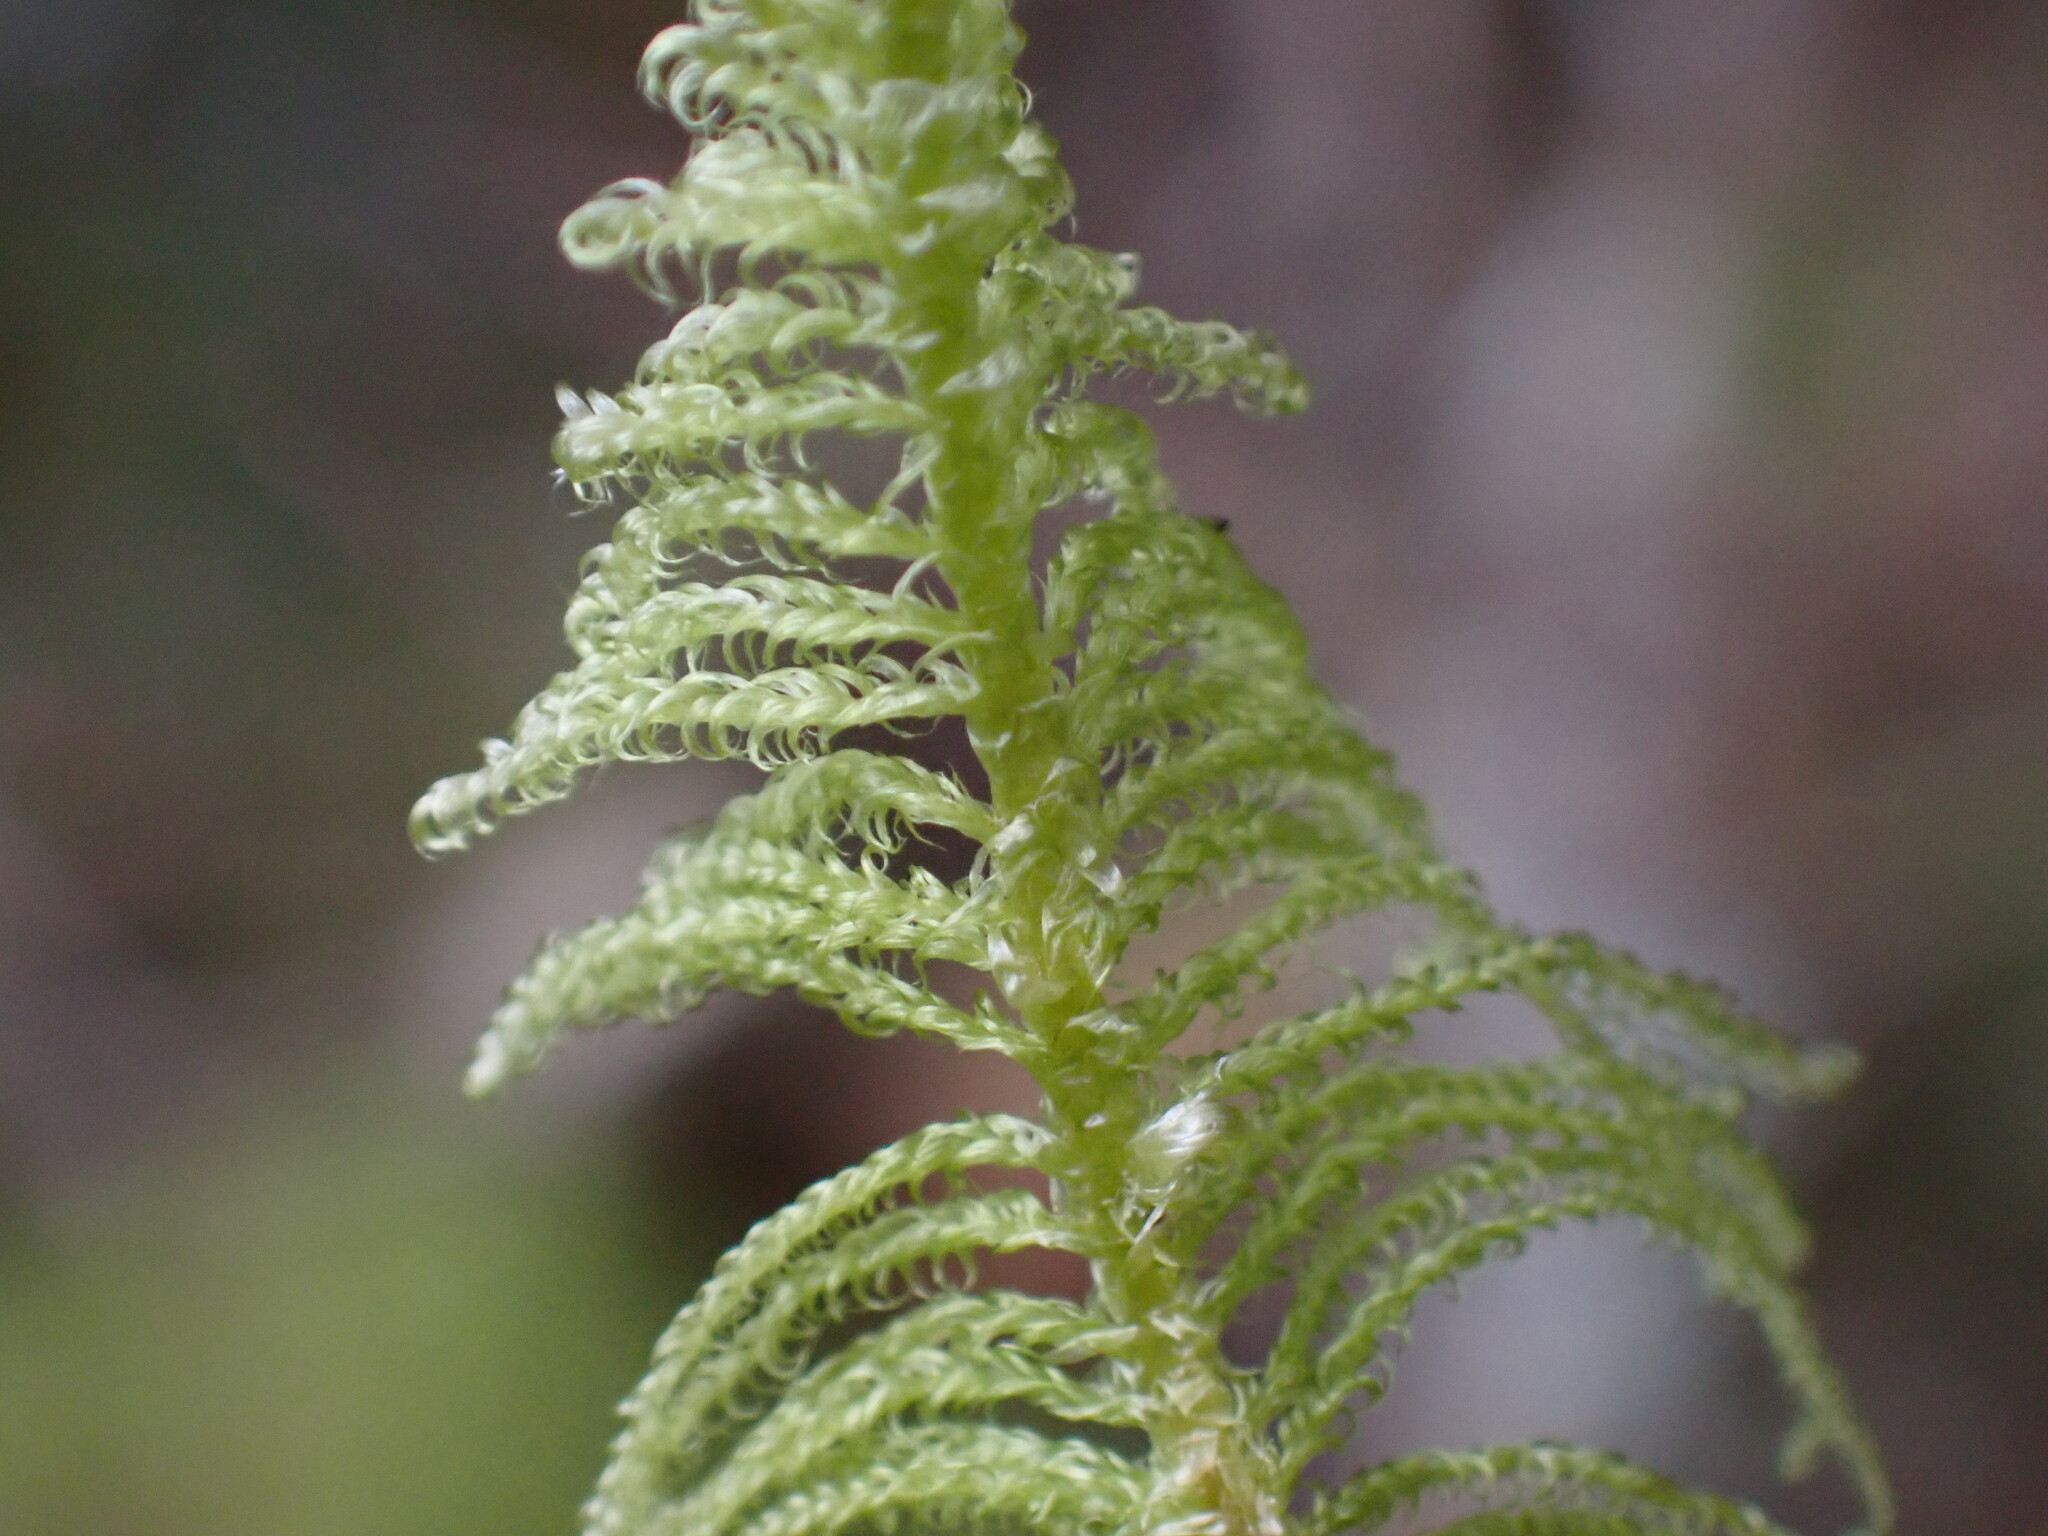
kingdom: Plantae
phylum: Bryophyta
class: Bryopsida
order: Hypnales
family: Pylaisiaceae
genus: Ptilium
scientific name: Ptilium crista-castrensis
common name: Knight's plume moss
